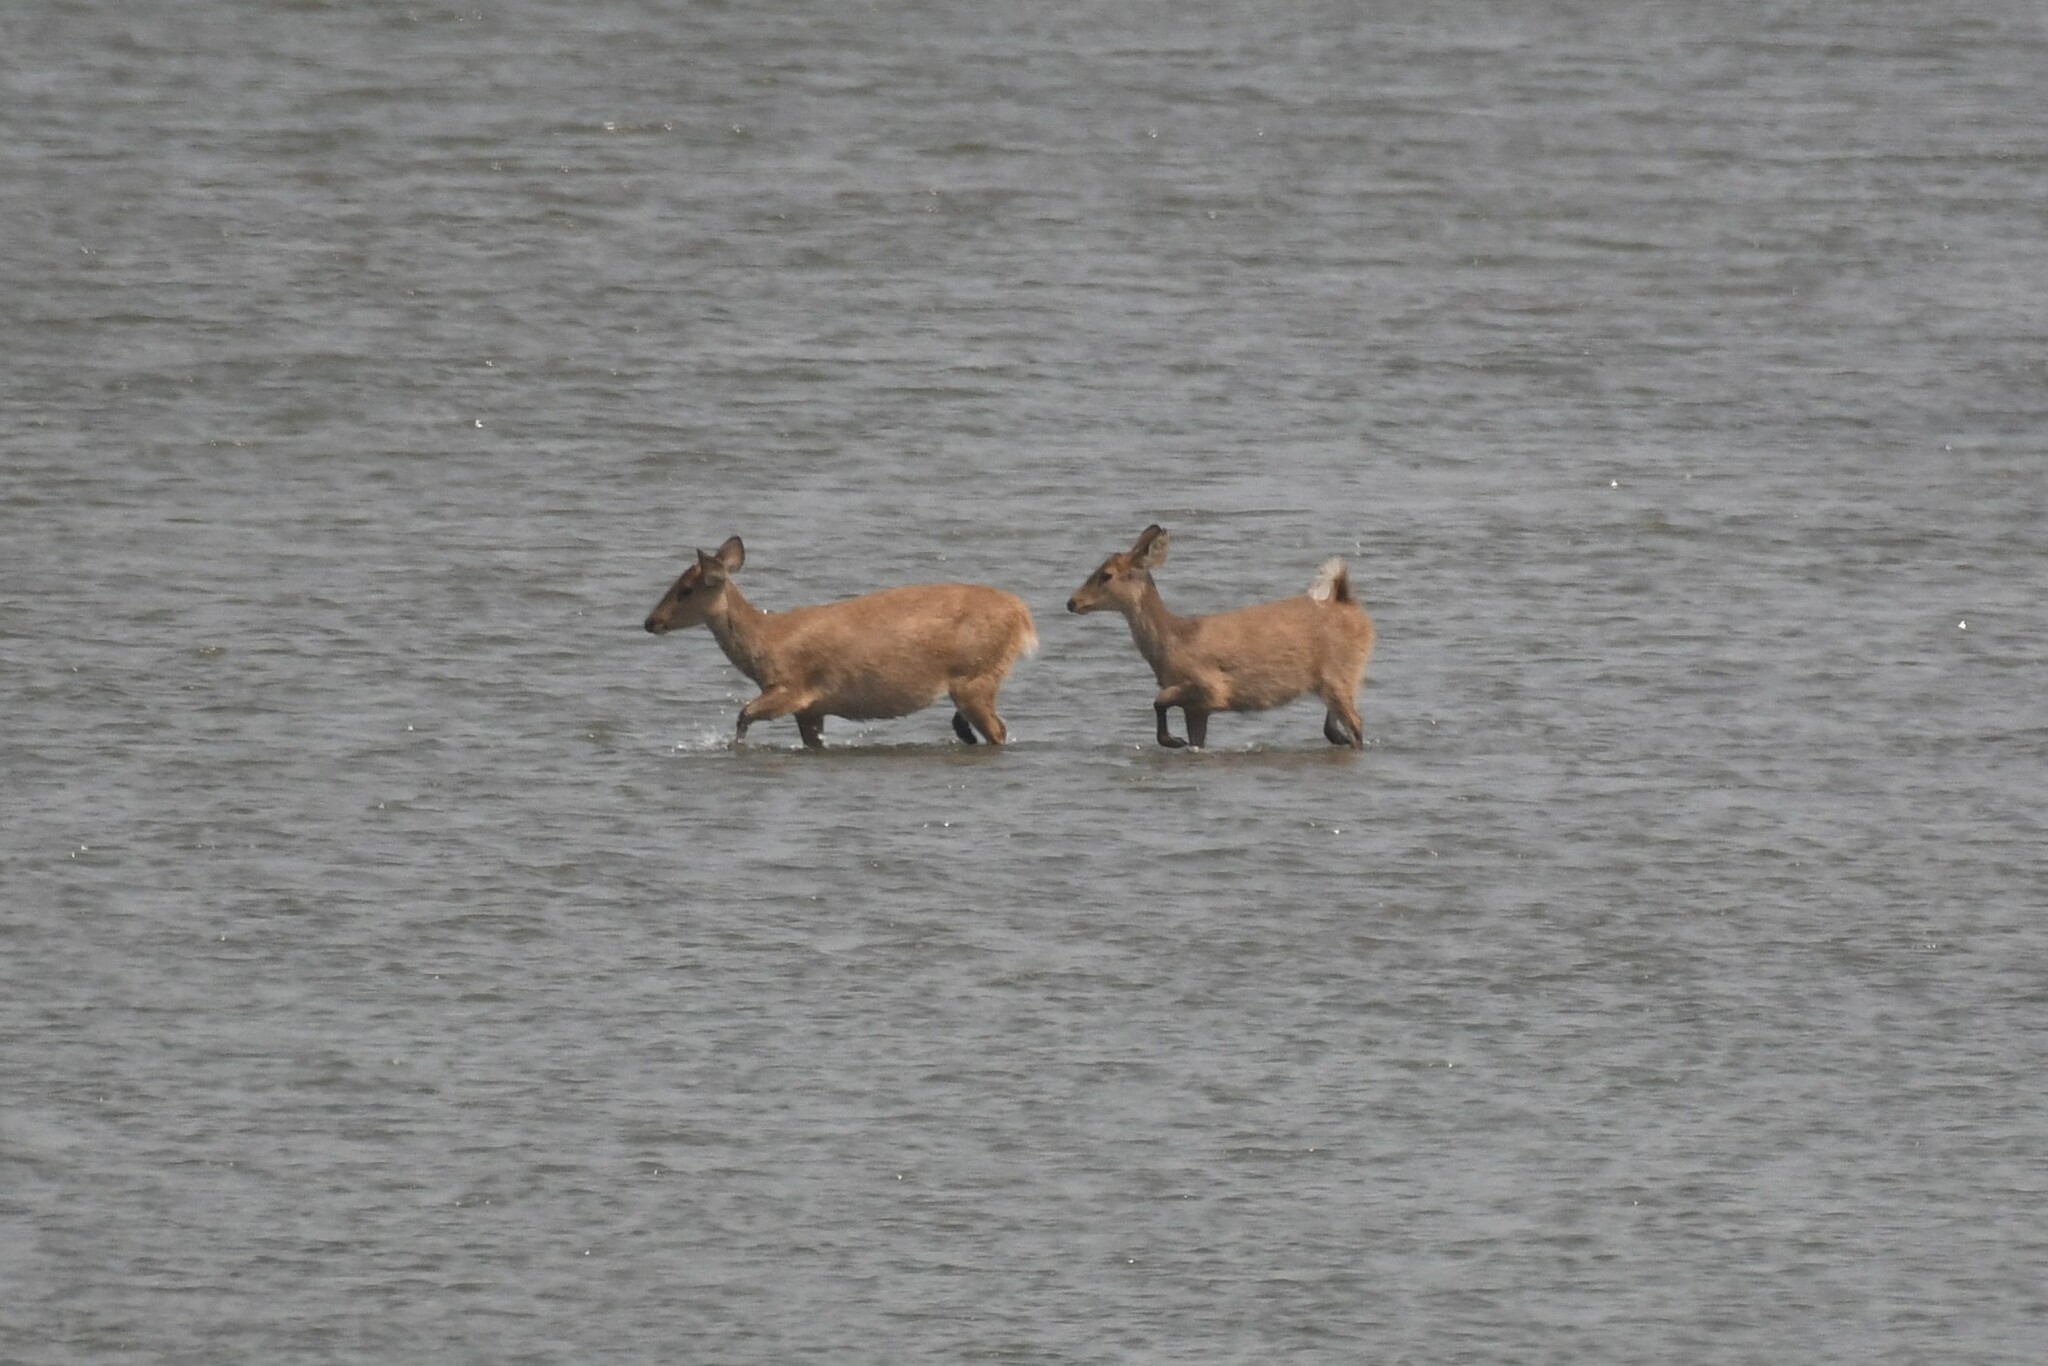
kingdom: Animalia
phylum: Chordata
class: Mammalia
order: Artiodactyla
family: Cervidae
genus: Axis
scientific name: Axis porcinus
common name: Hog deer
